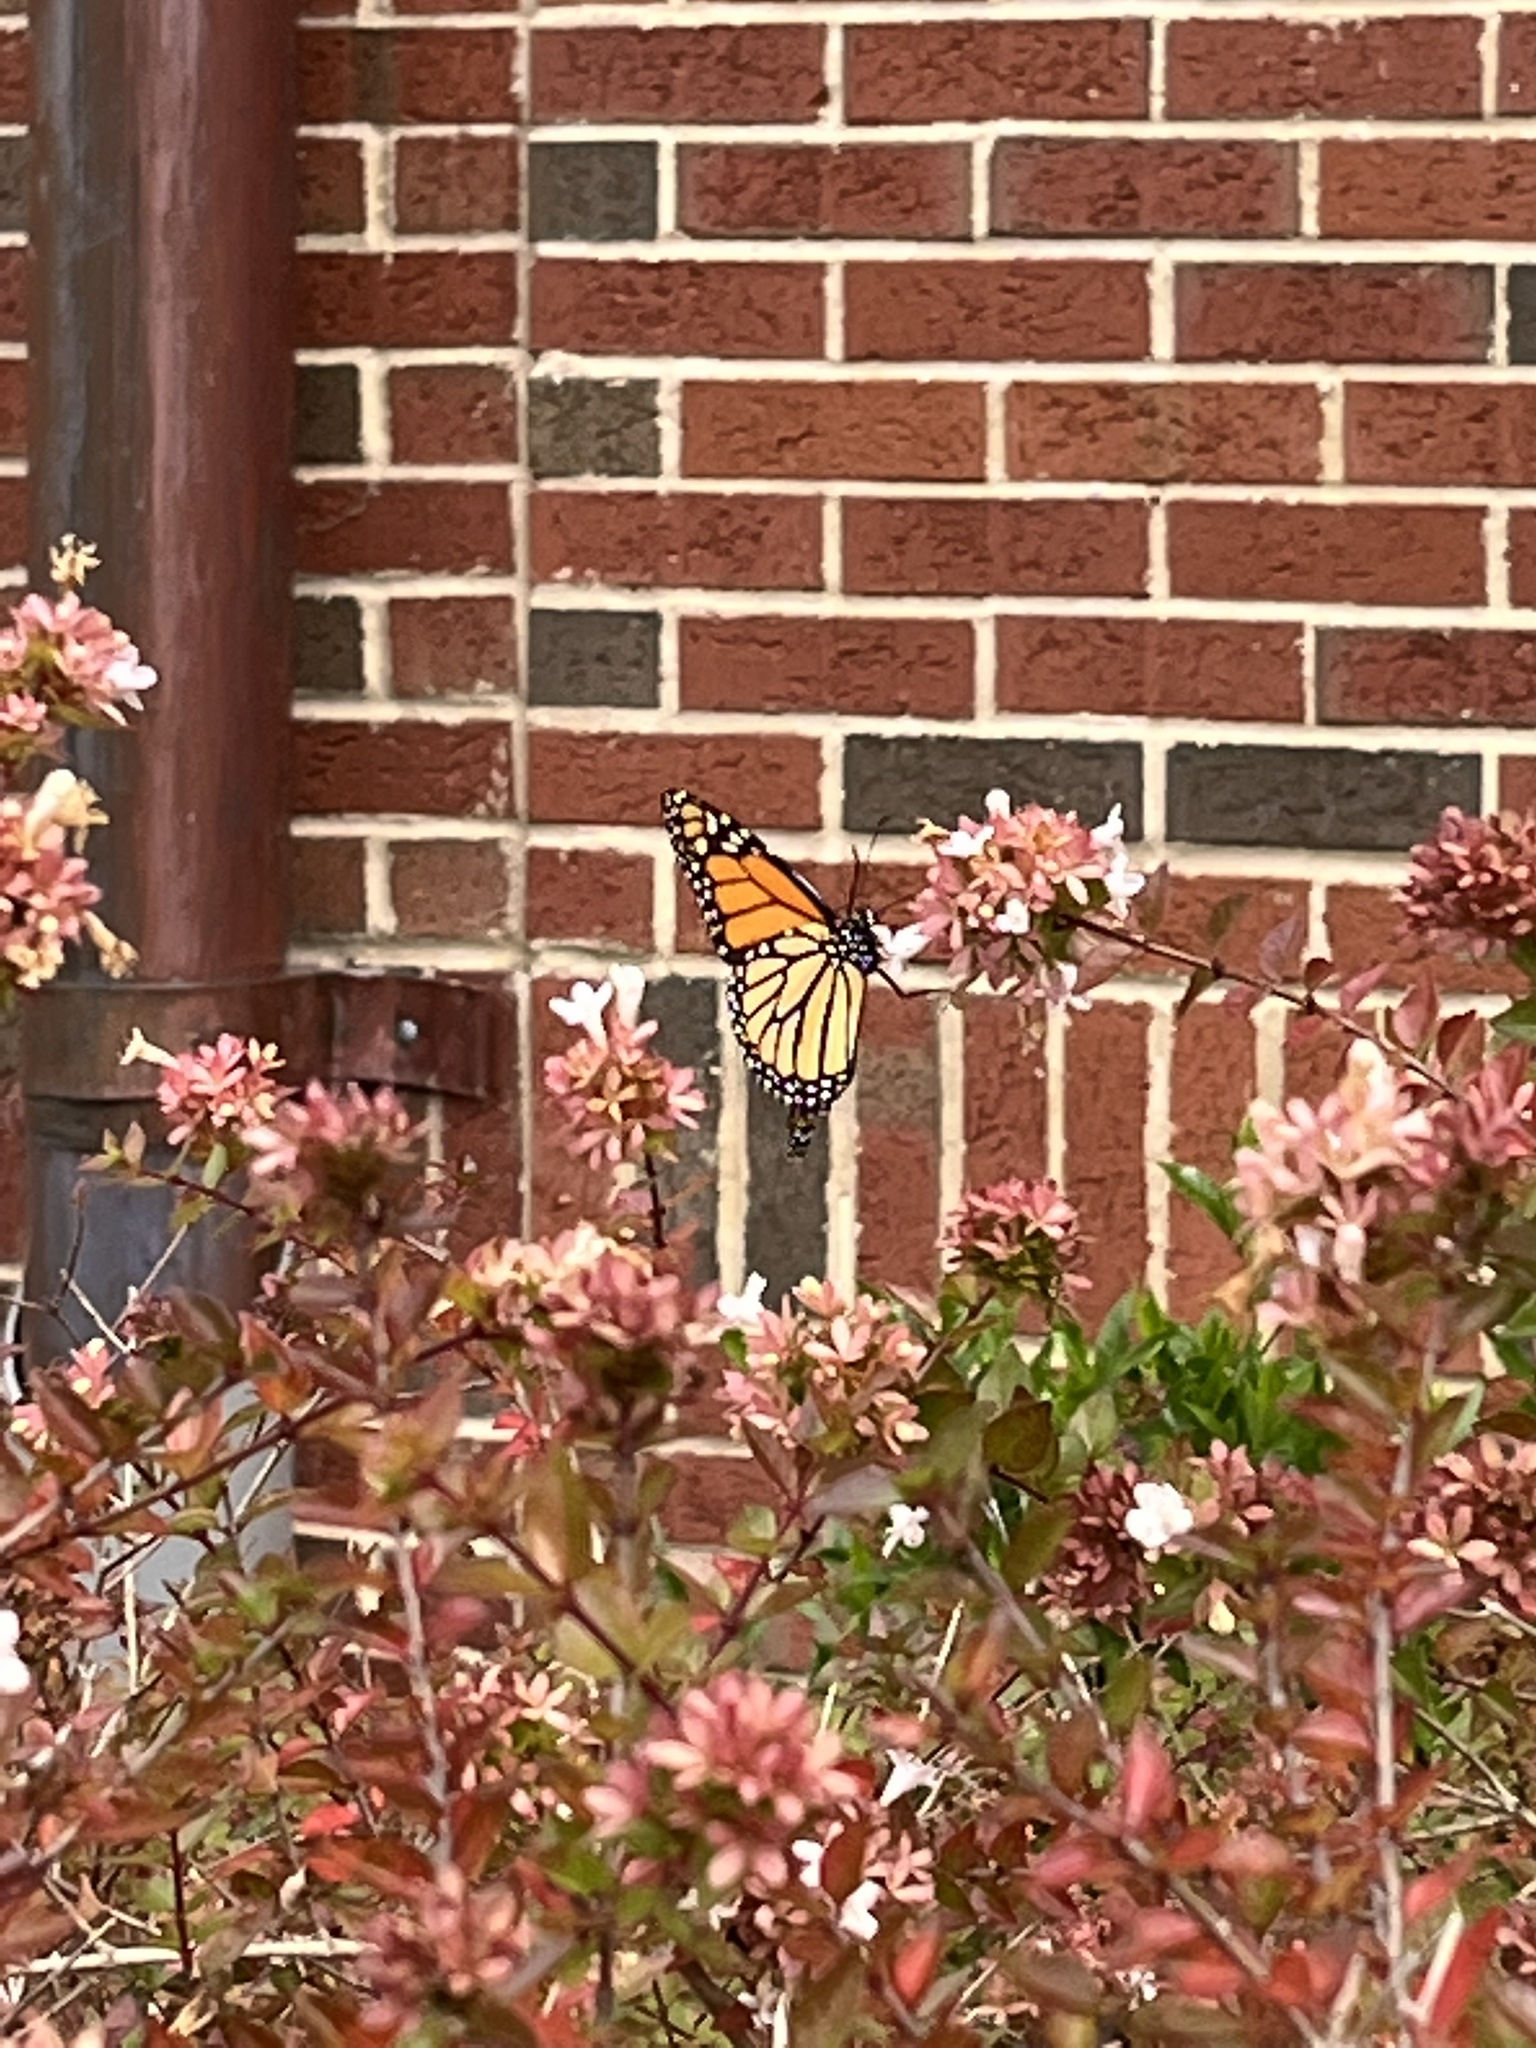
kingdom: Animalia
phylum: Arthropoda
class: Insecta
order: Lepidoptera
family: Nymphalidae
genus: Danaus
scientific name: Danaus plexippus
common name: Monarch
